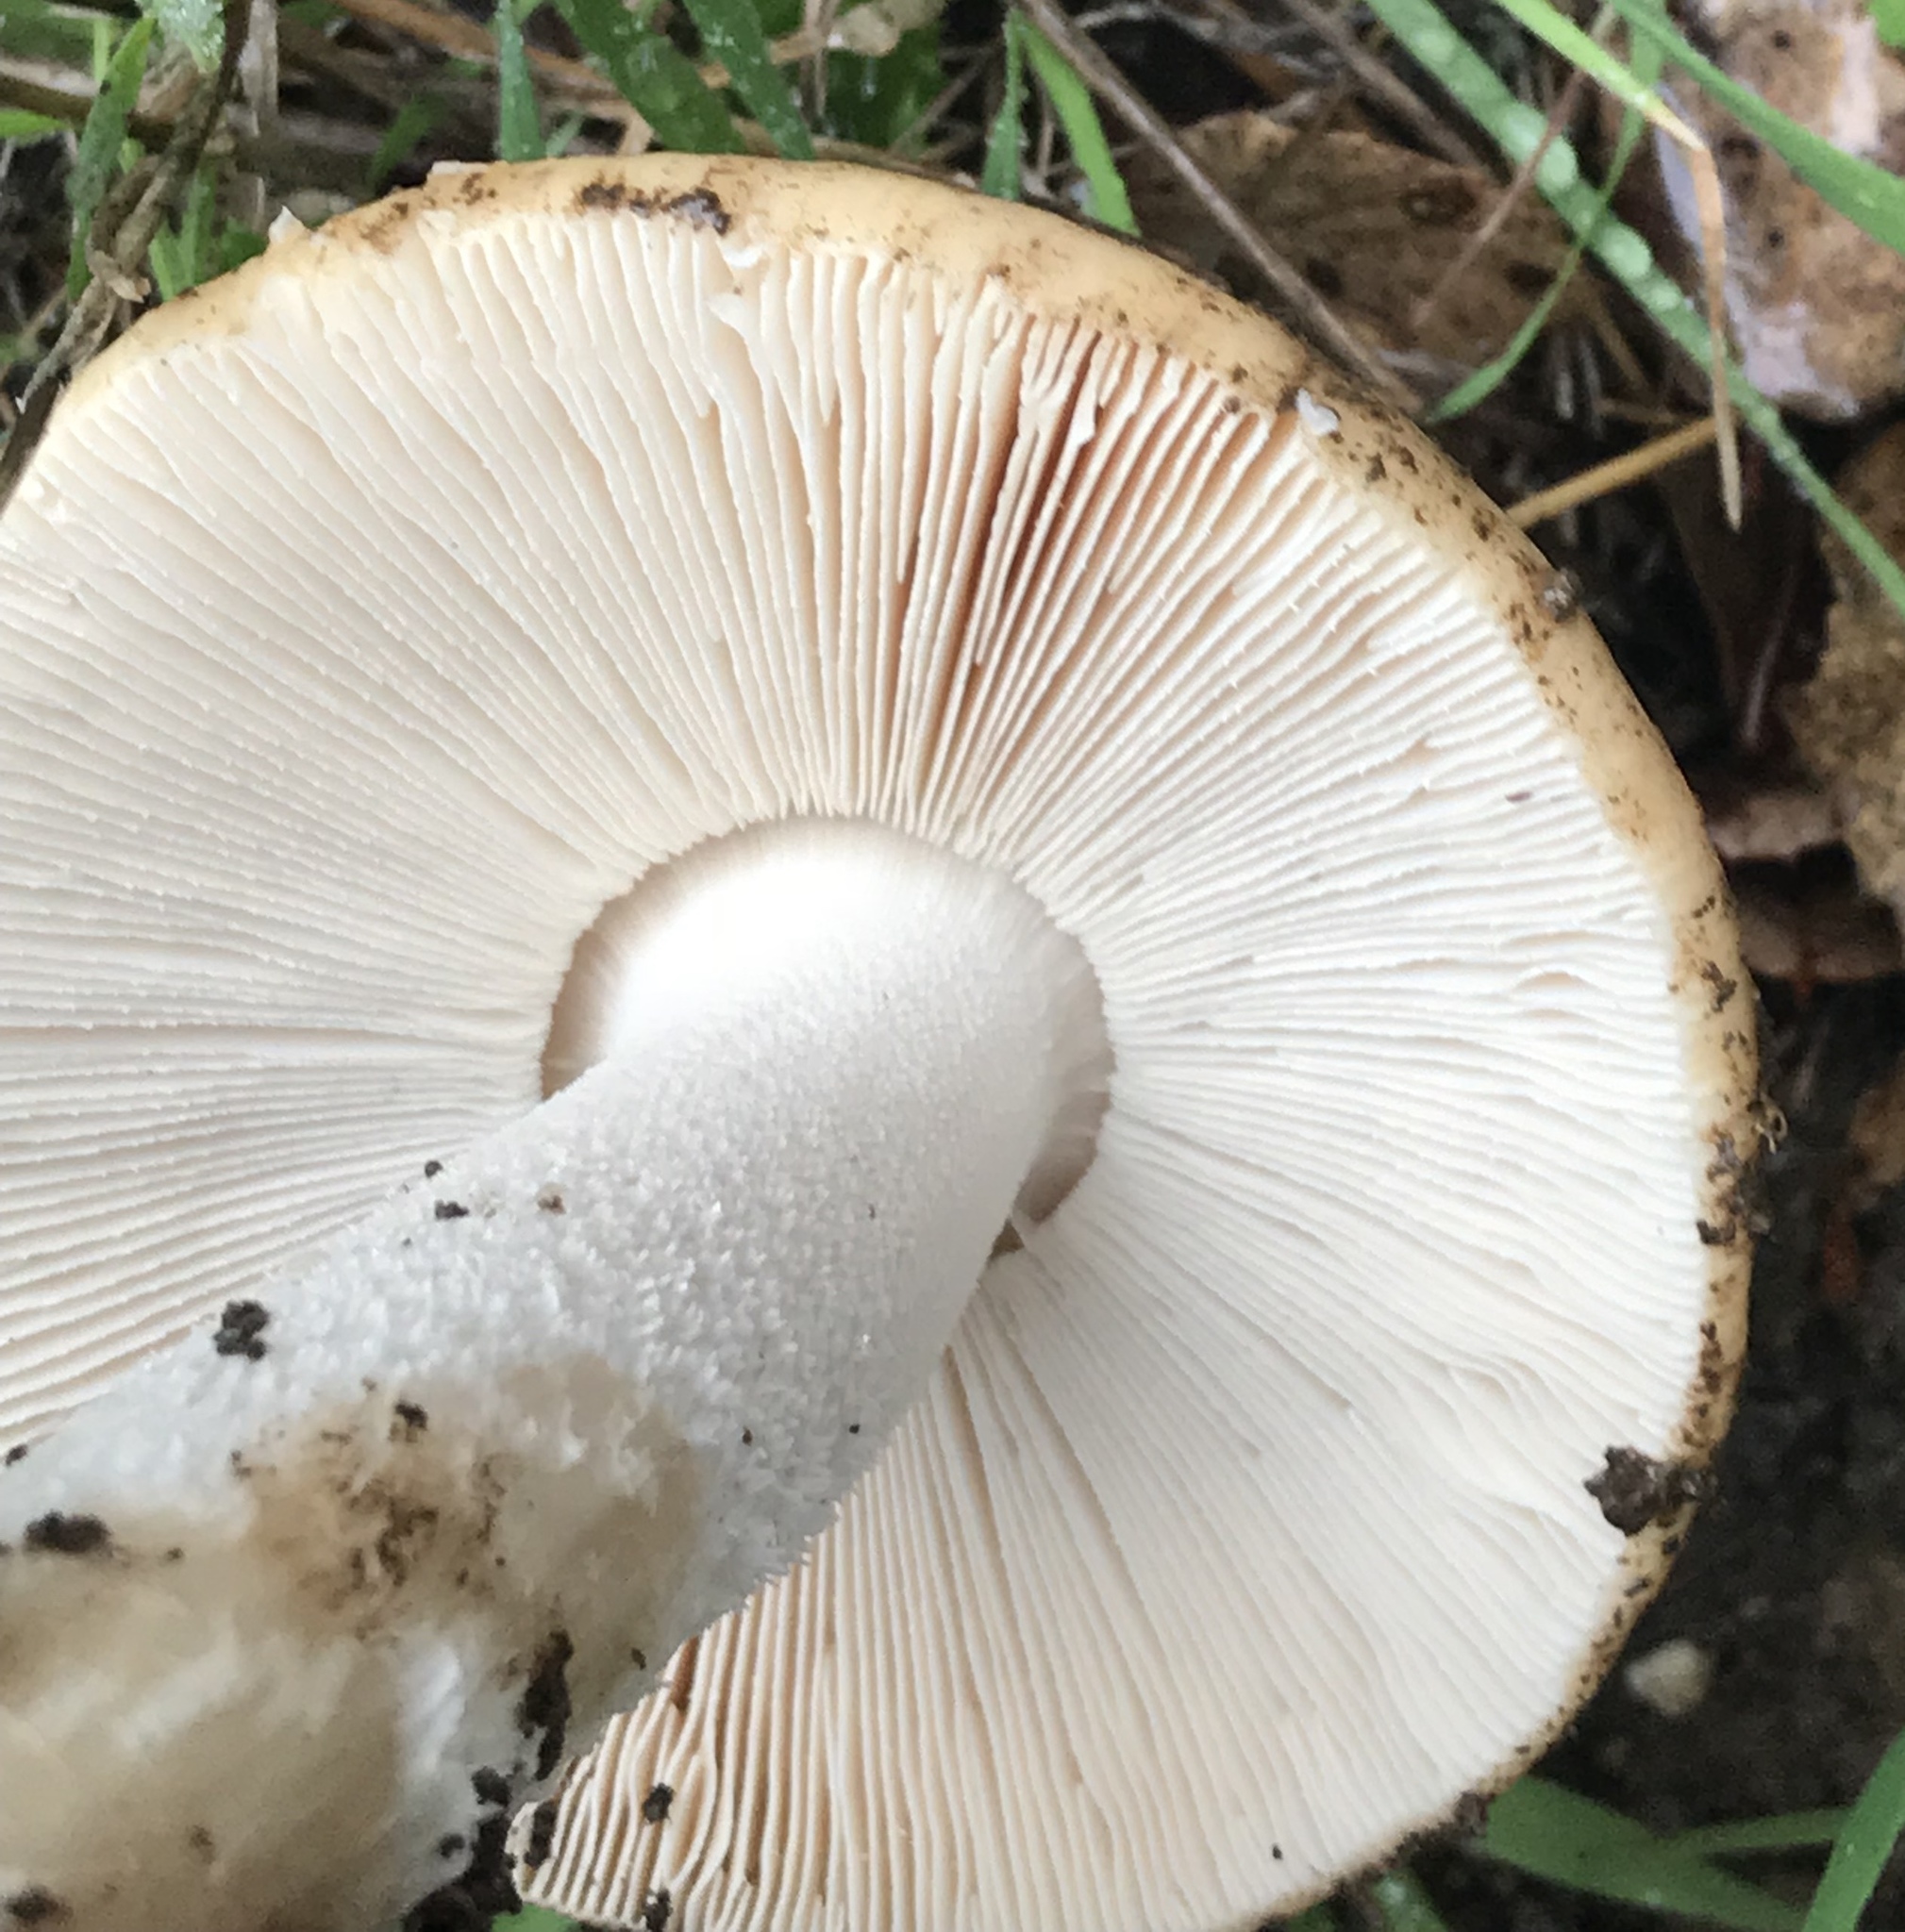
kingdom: Fungi
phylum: Basidiomycota
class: Agaricomycetes
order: Agaricales
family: Amanitaceae
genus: Amanita
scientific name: Amanita velosa
